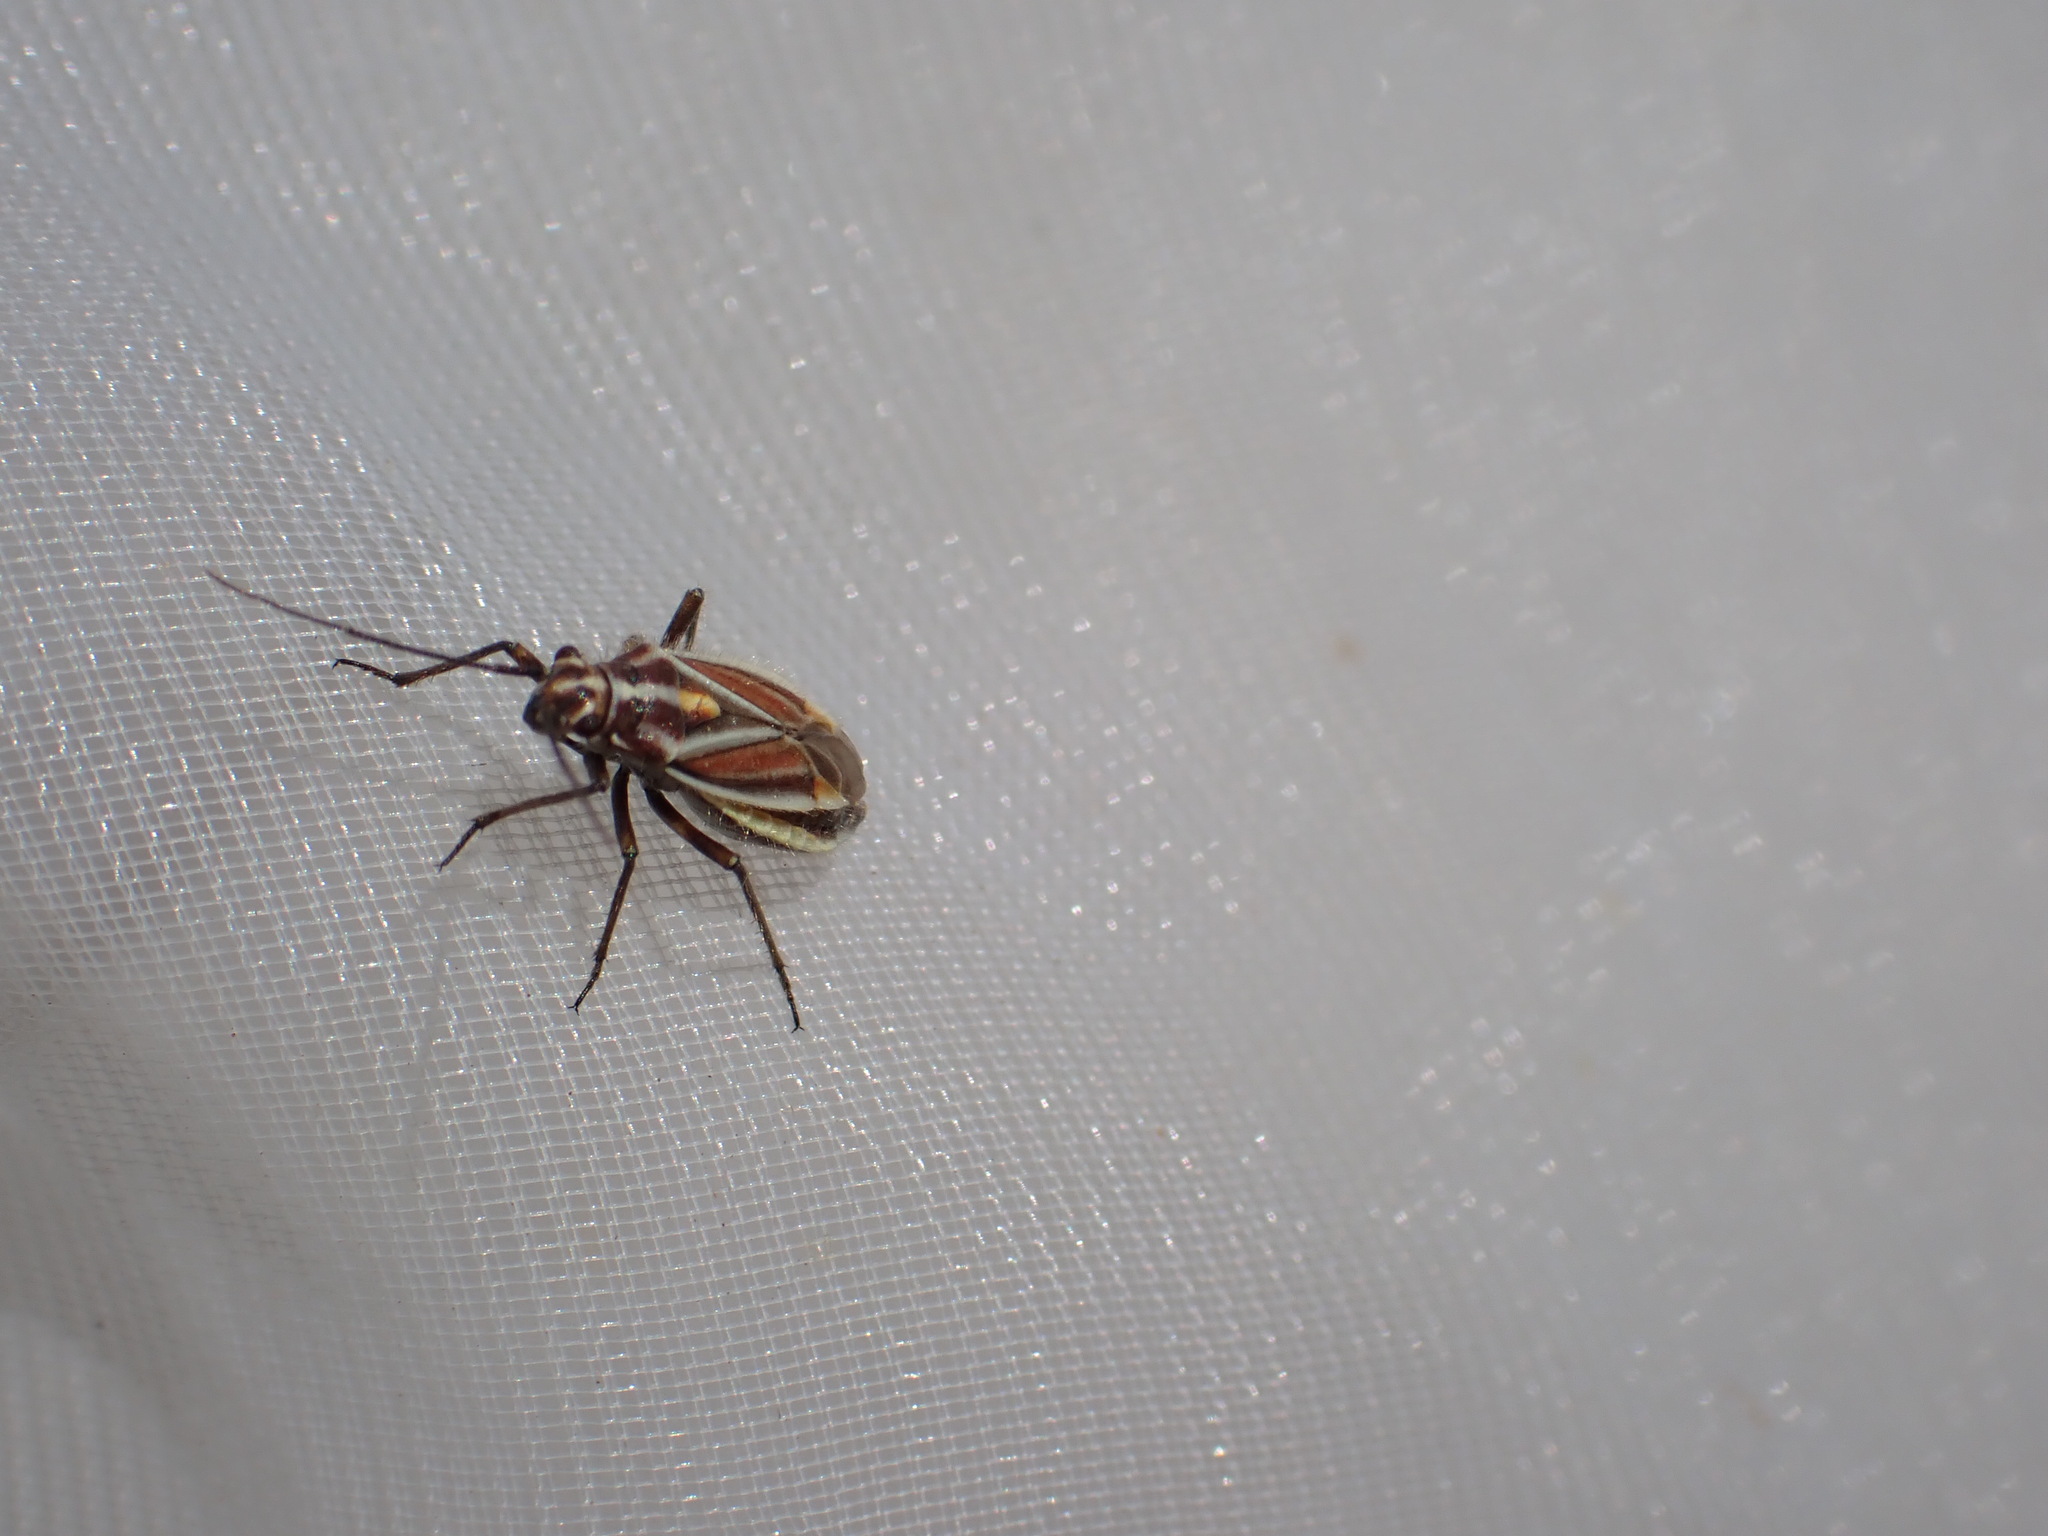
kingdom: Animalia
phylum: Arthropoda
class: Insecta
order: Hemiptera
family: Miridae
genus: Horistus
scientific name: Horistus orientalis
